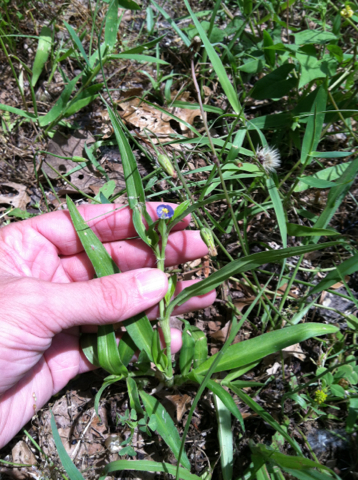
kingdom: Plantae
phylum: Tracheophyta
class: Liliopsida
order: Commelinales
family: Commelinaceae
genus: Commelina
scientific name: Commelina erecta
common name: Blousel blommetjie
